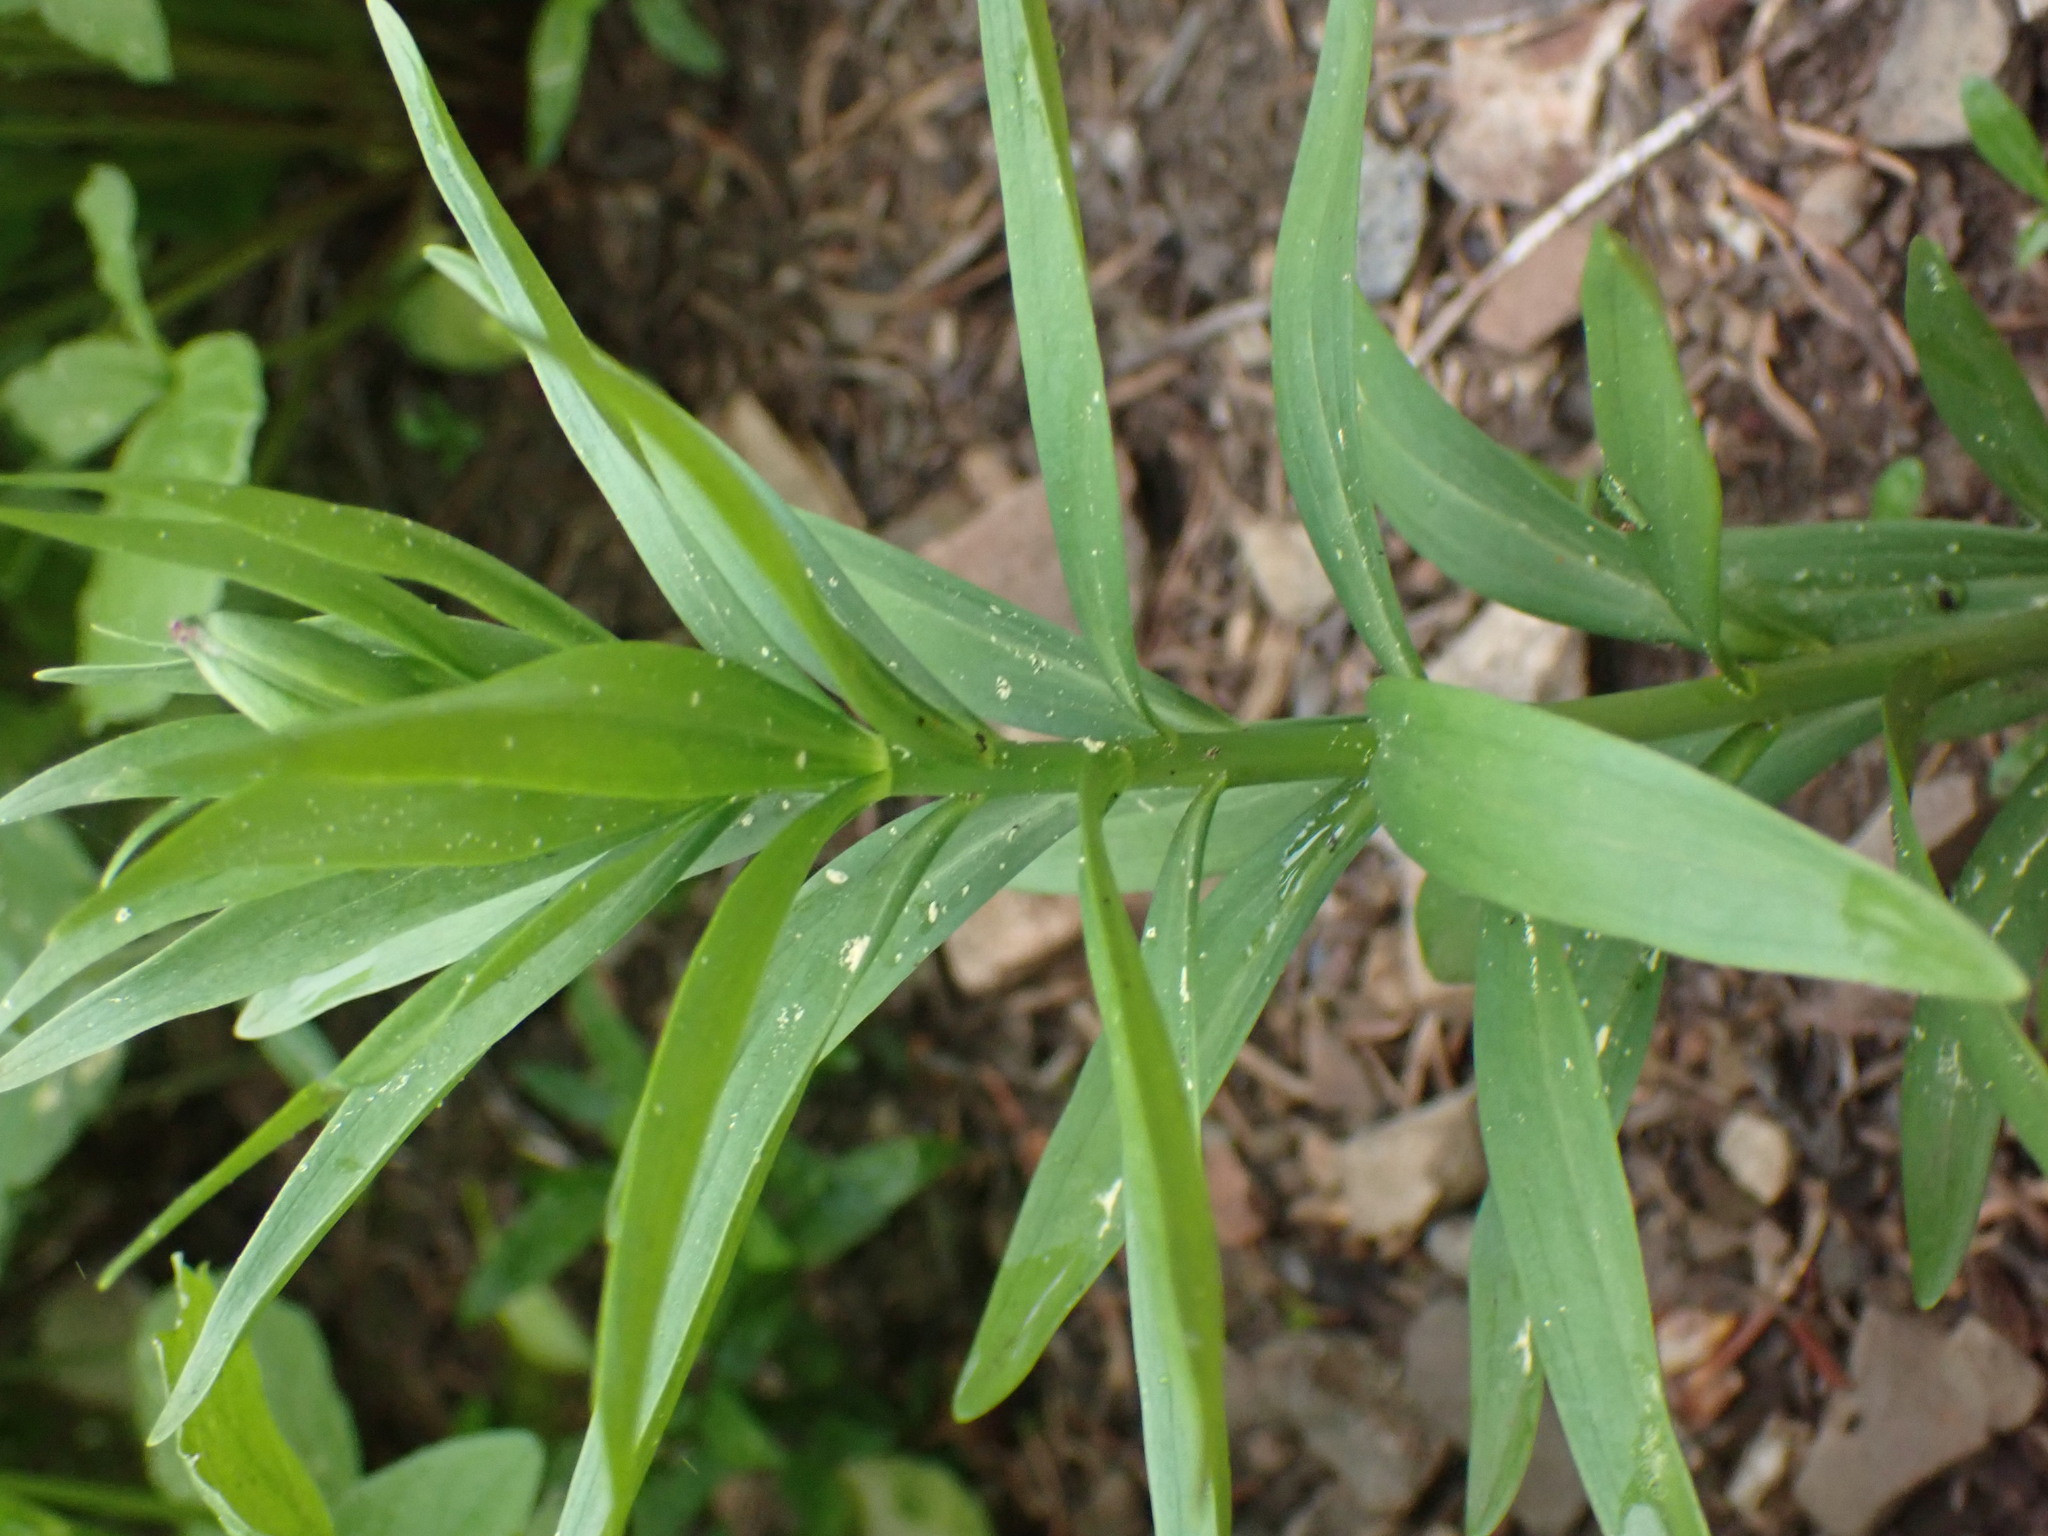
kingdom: Plantae
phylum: Tracheophyta
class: Liliopsida
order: Liliales
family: Liliaceae
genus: Lilium
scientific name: Lilium columbianum
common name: Columbia lily
